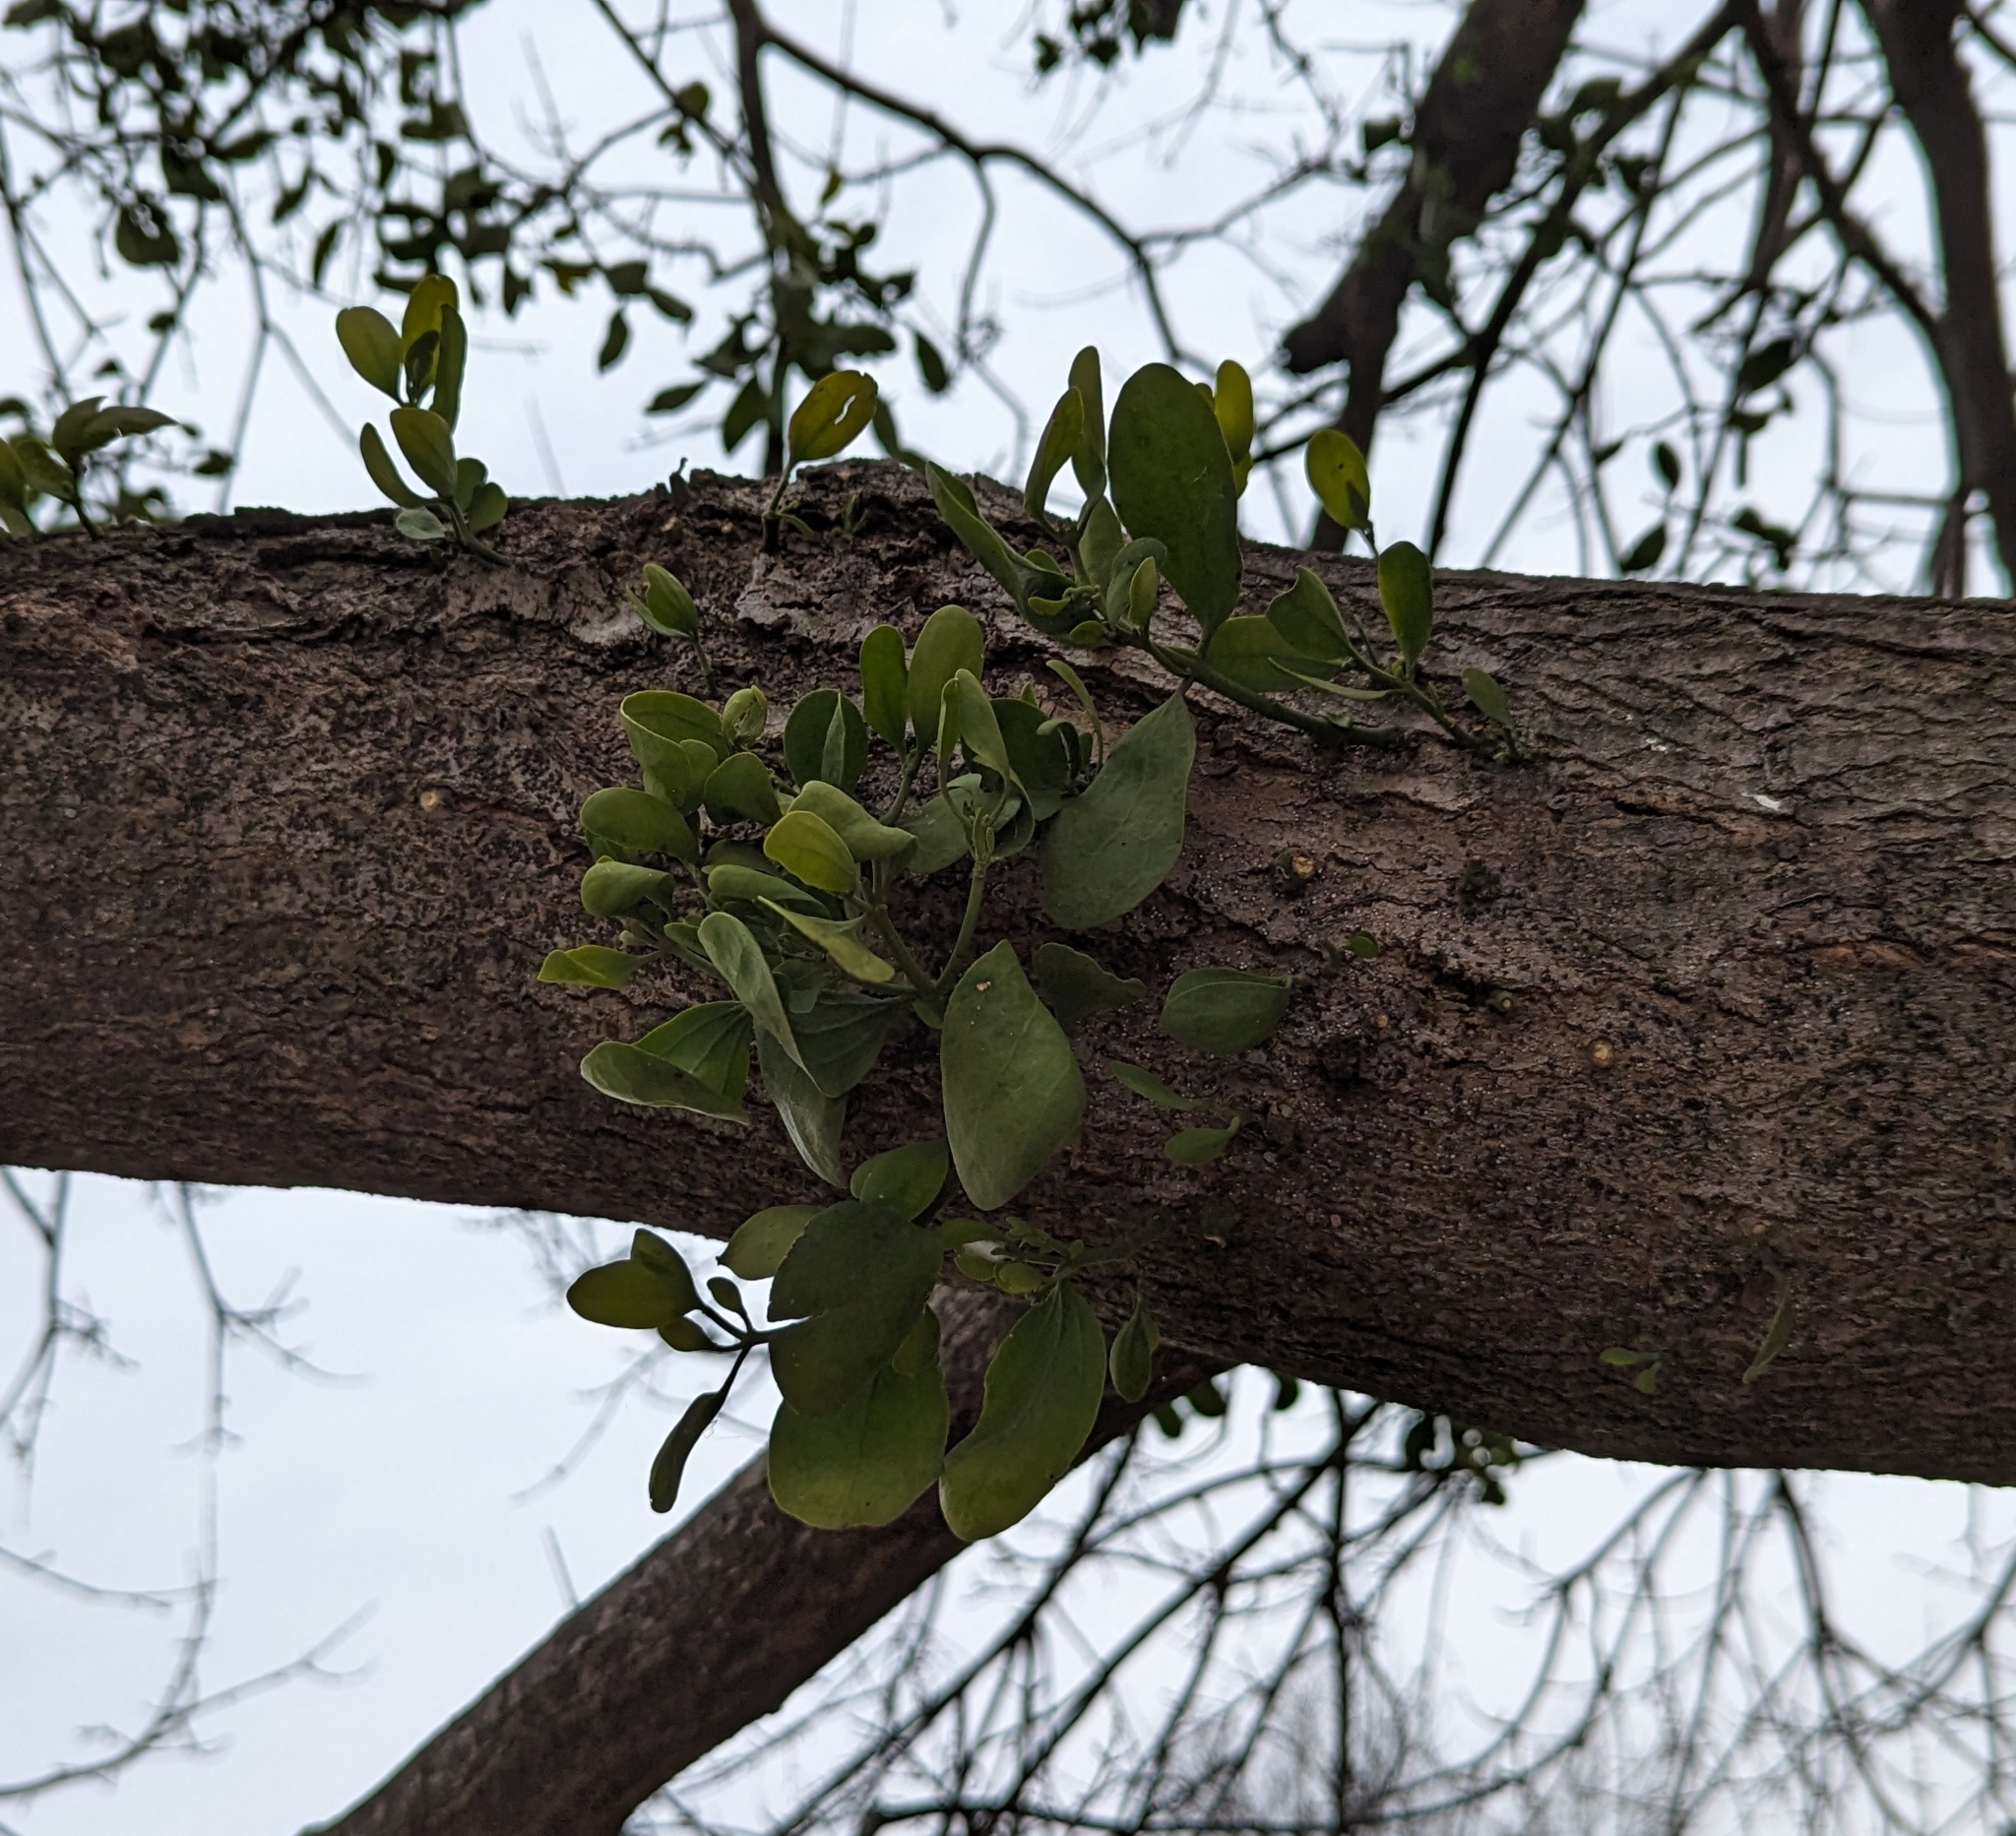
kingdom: Plantae
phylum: Tracheophyta
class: Magnoliopsida
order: Santalales
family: Viscaceae
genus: Phoradendron
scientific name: Phoradendron leucarpum
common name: Pacific mistletoe
